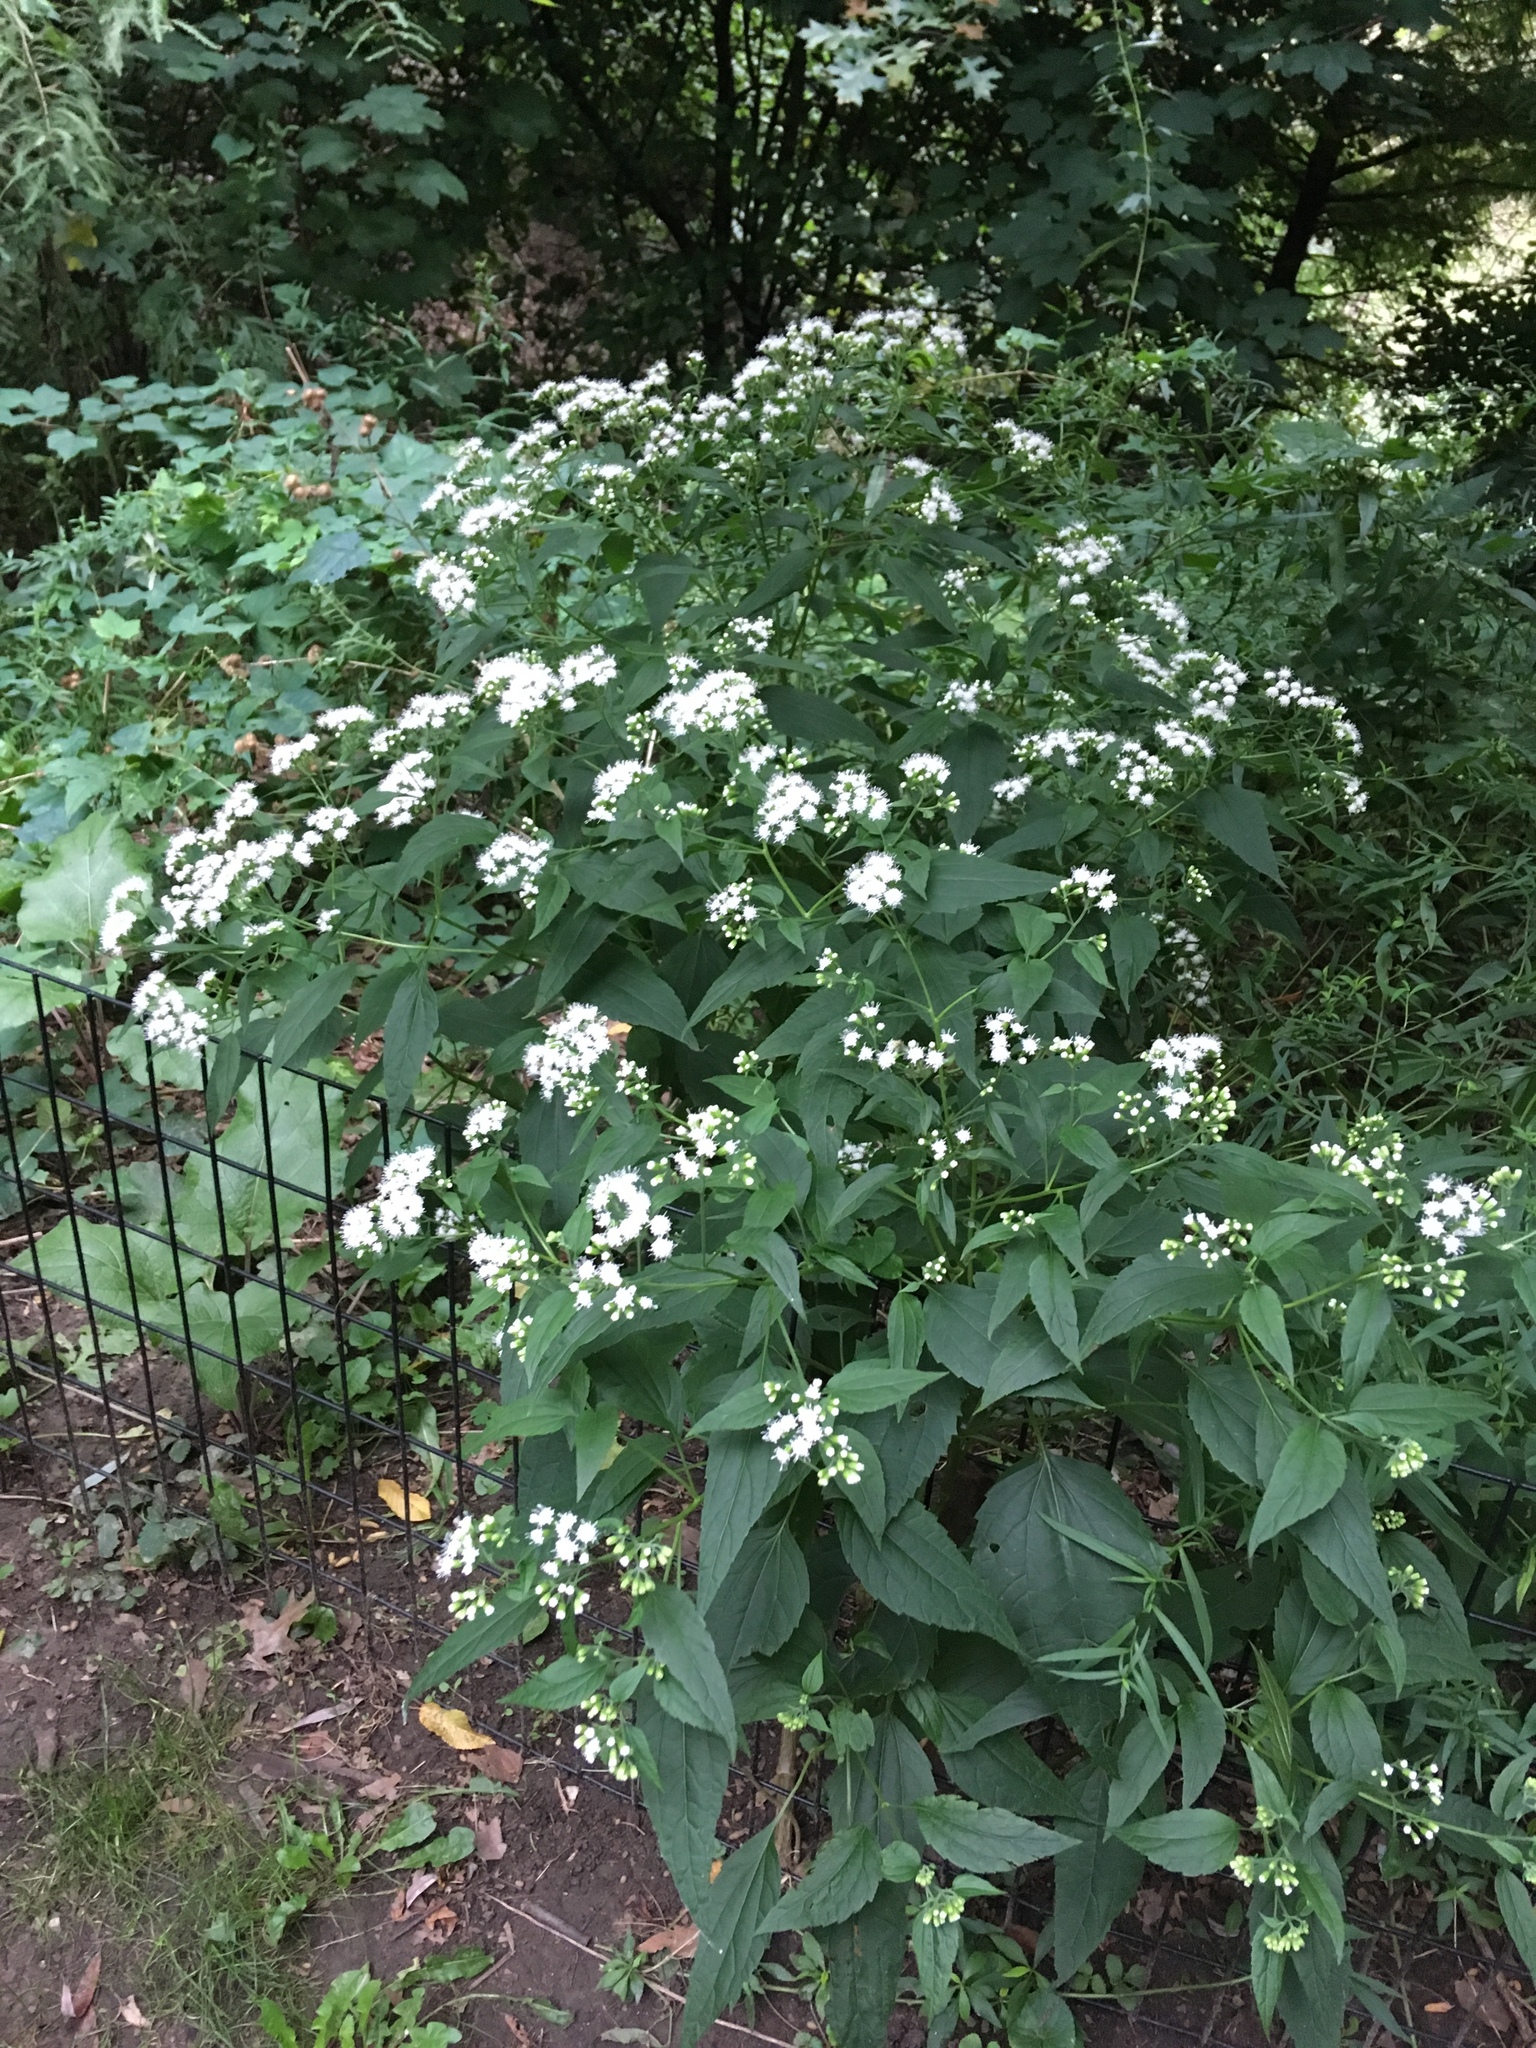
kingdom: Plantae
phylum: Tracheophyta
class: Magnoliopsida
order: Asterales
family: Asteraceae
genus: Ageratina
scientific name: Ageratina altissima
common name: White snakeroot
